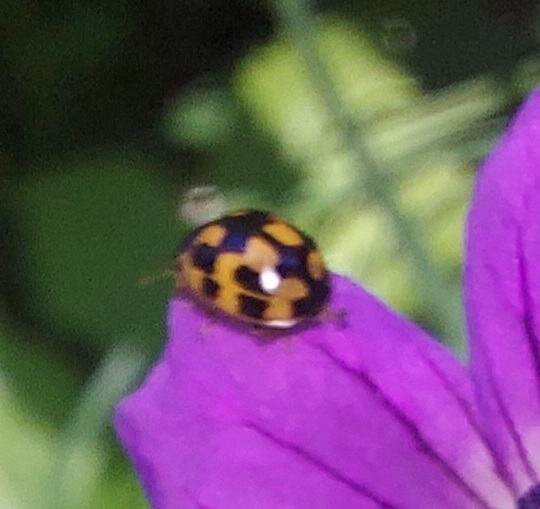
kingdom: Animalia
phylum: Arthropoda
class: Insecta
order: Coleoptera
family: Coccinellidae
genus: Propylaea
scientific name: Propylaea quatuordecimpunctata
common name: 14-spotted ladybird beetle
